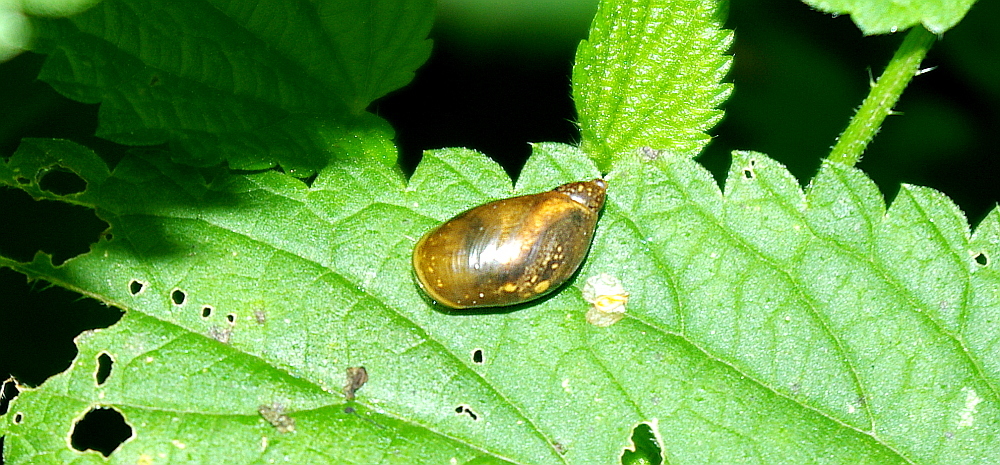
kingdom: Animalia
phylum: Mollusca
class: Gastropoda
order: Stylommatophora
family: Succineidae
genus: Succinea
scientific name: Succinea putris
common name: European ambersnail
